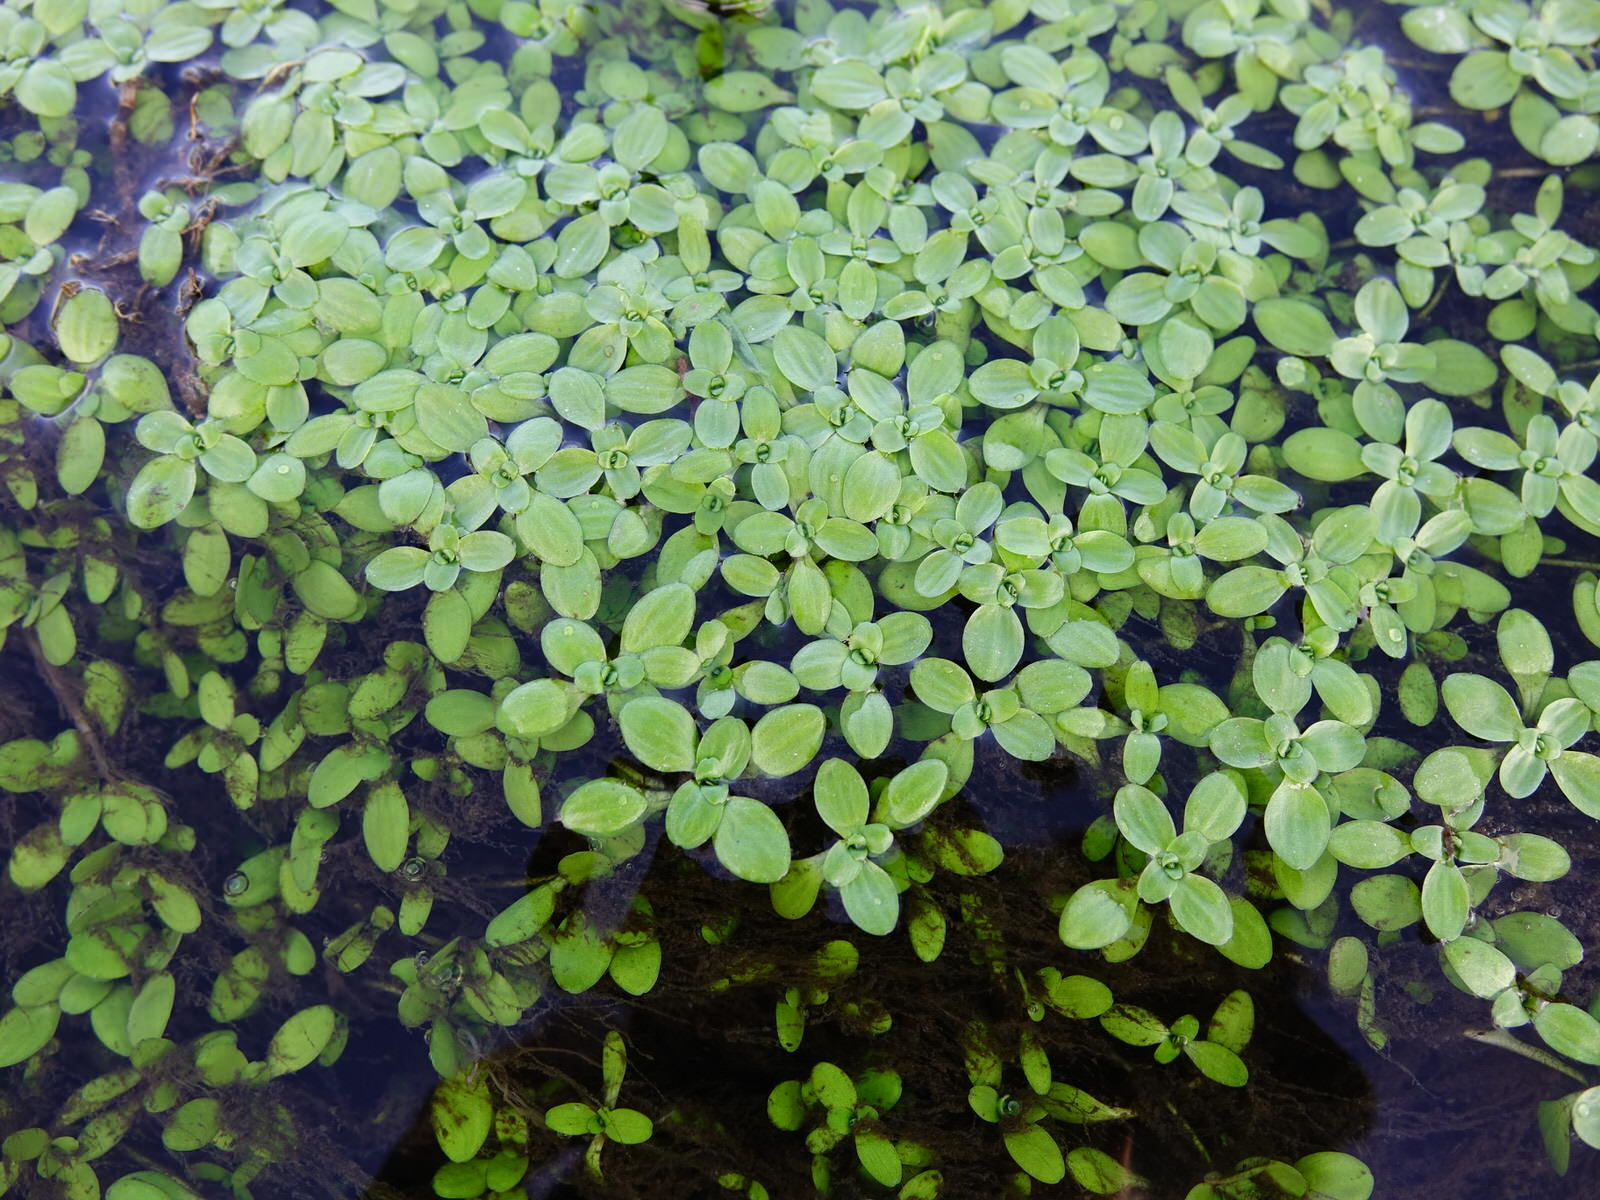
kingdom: Plantae
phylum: Tracheophyta
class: Magnoliopsida
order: Lamiales
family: Plantaginaceae
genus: Callitriche
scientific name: Callitriche stagnalis
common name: Common water-starwort
